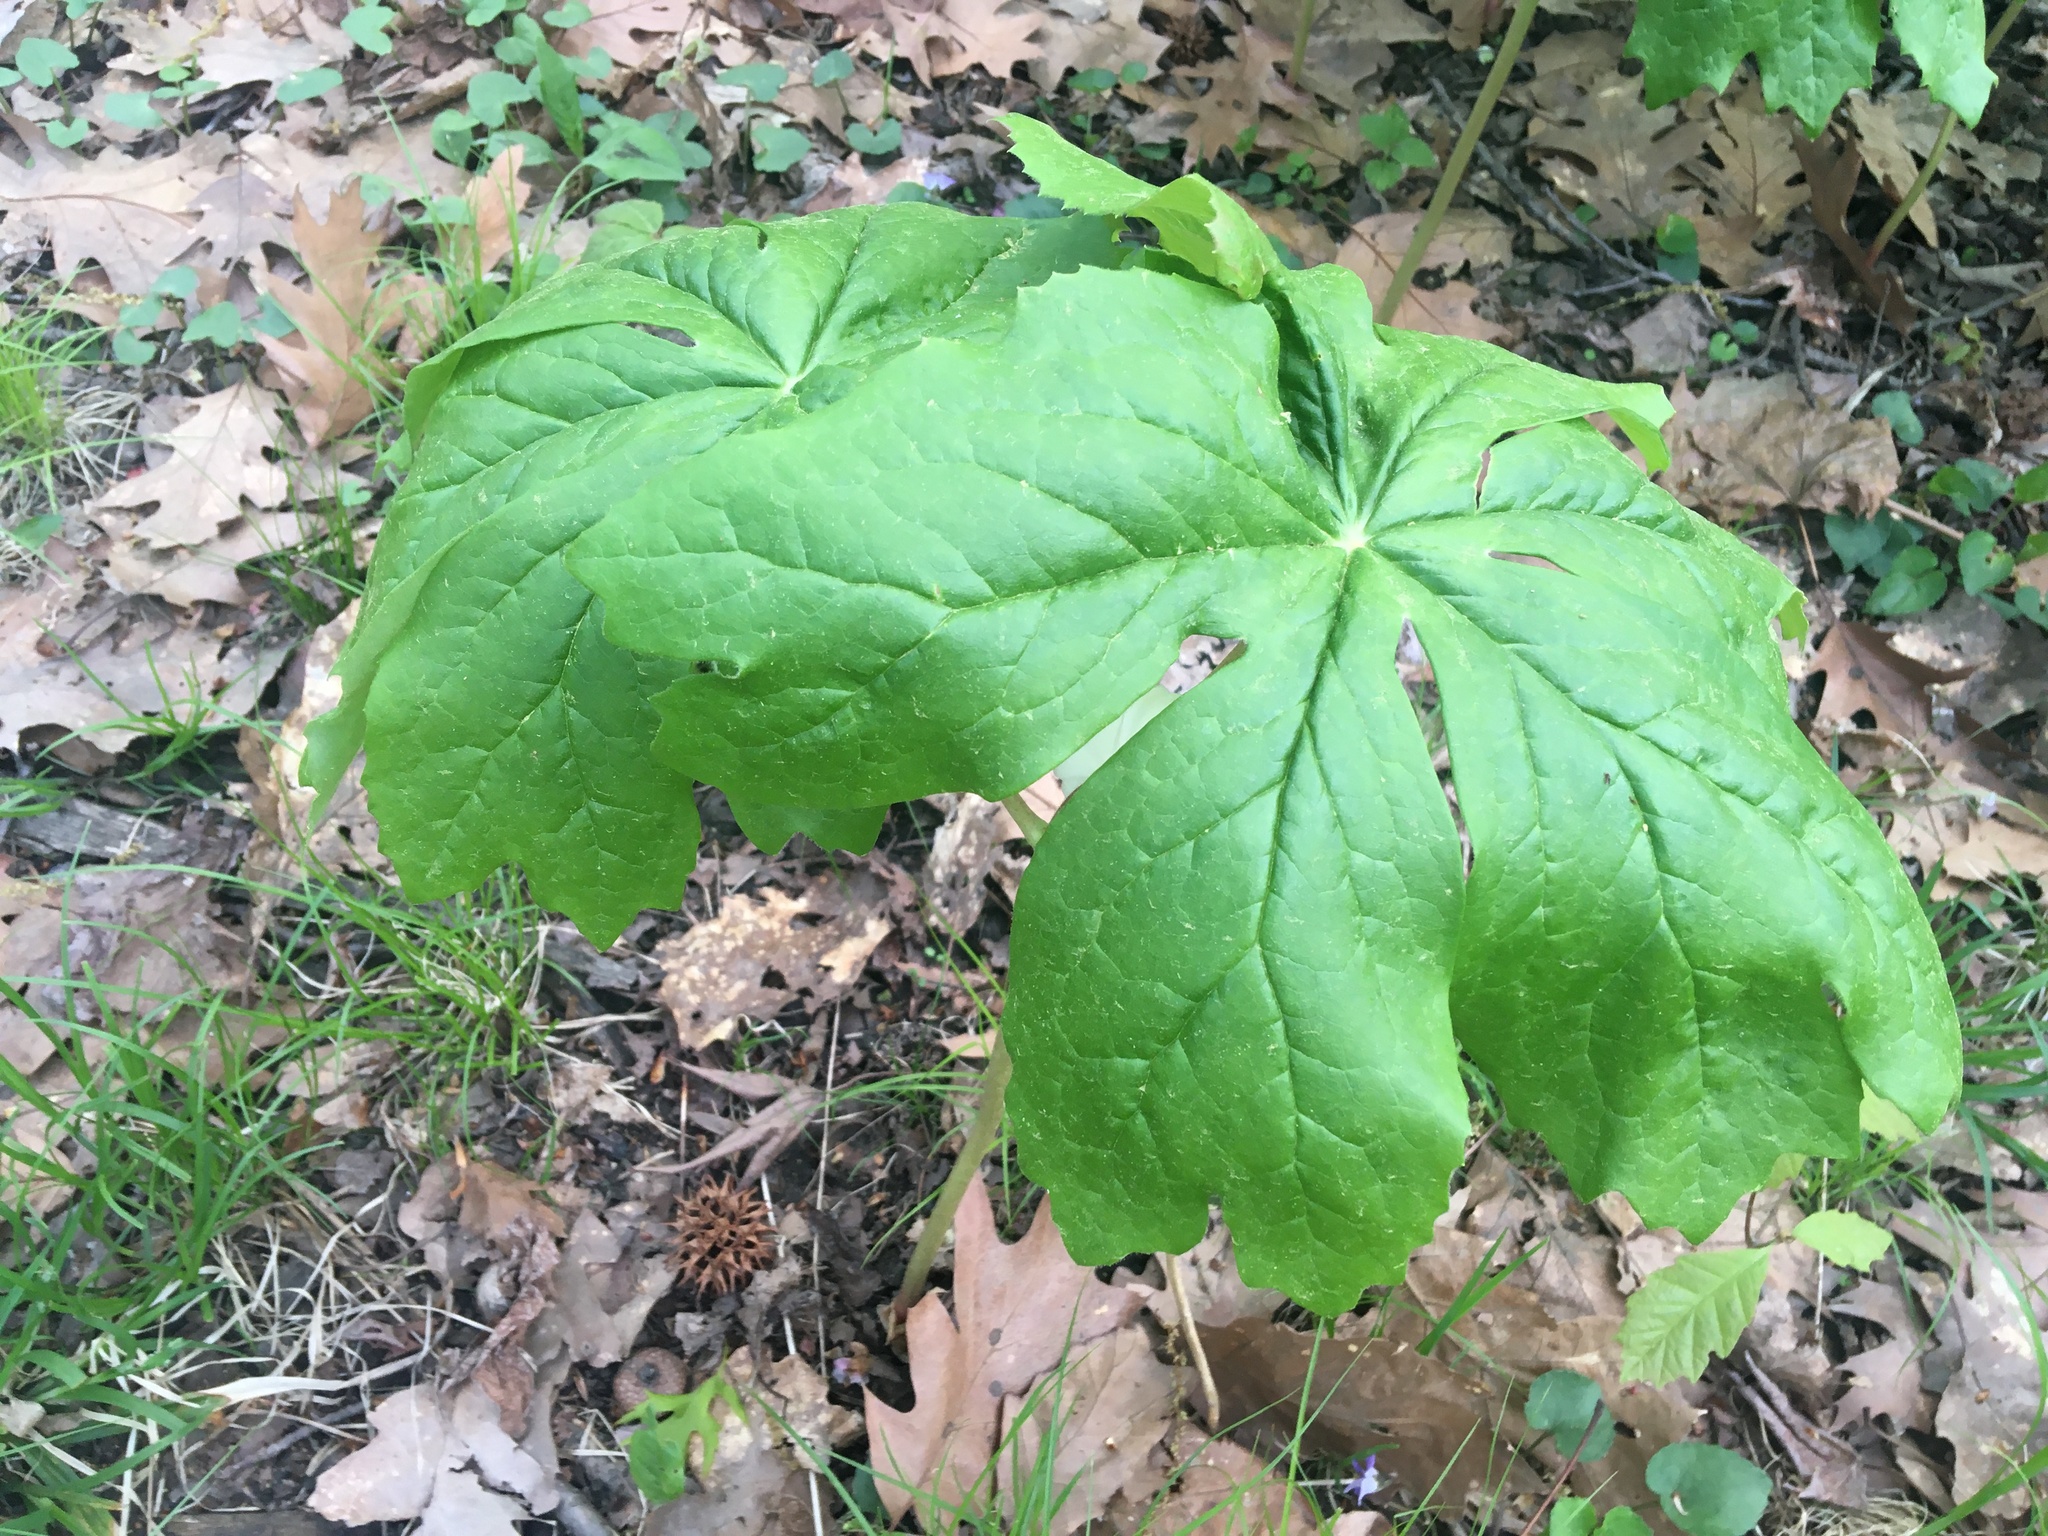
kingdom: Plantae
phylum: Tracheophyta
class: Magnoliopsida
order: Ranunculales
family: Berberidaceae
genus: Podophyllum
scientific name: Podophyllum peltatum
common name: Wild mandrake
